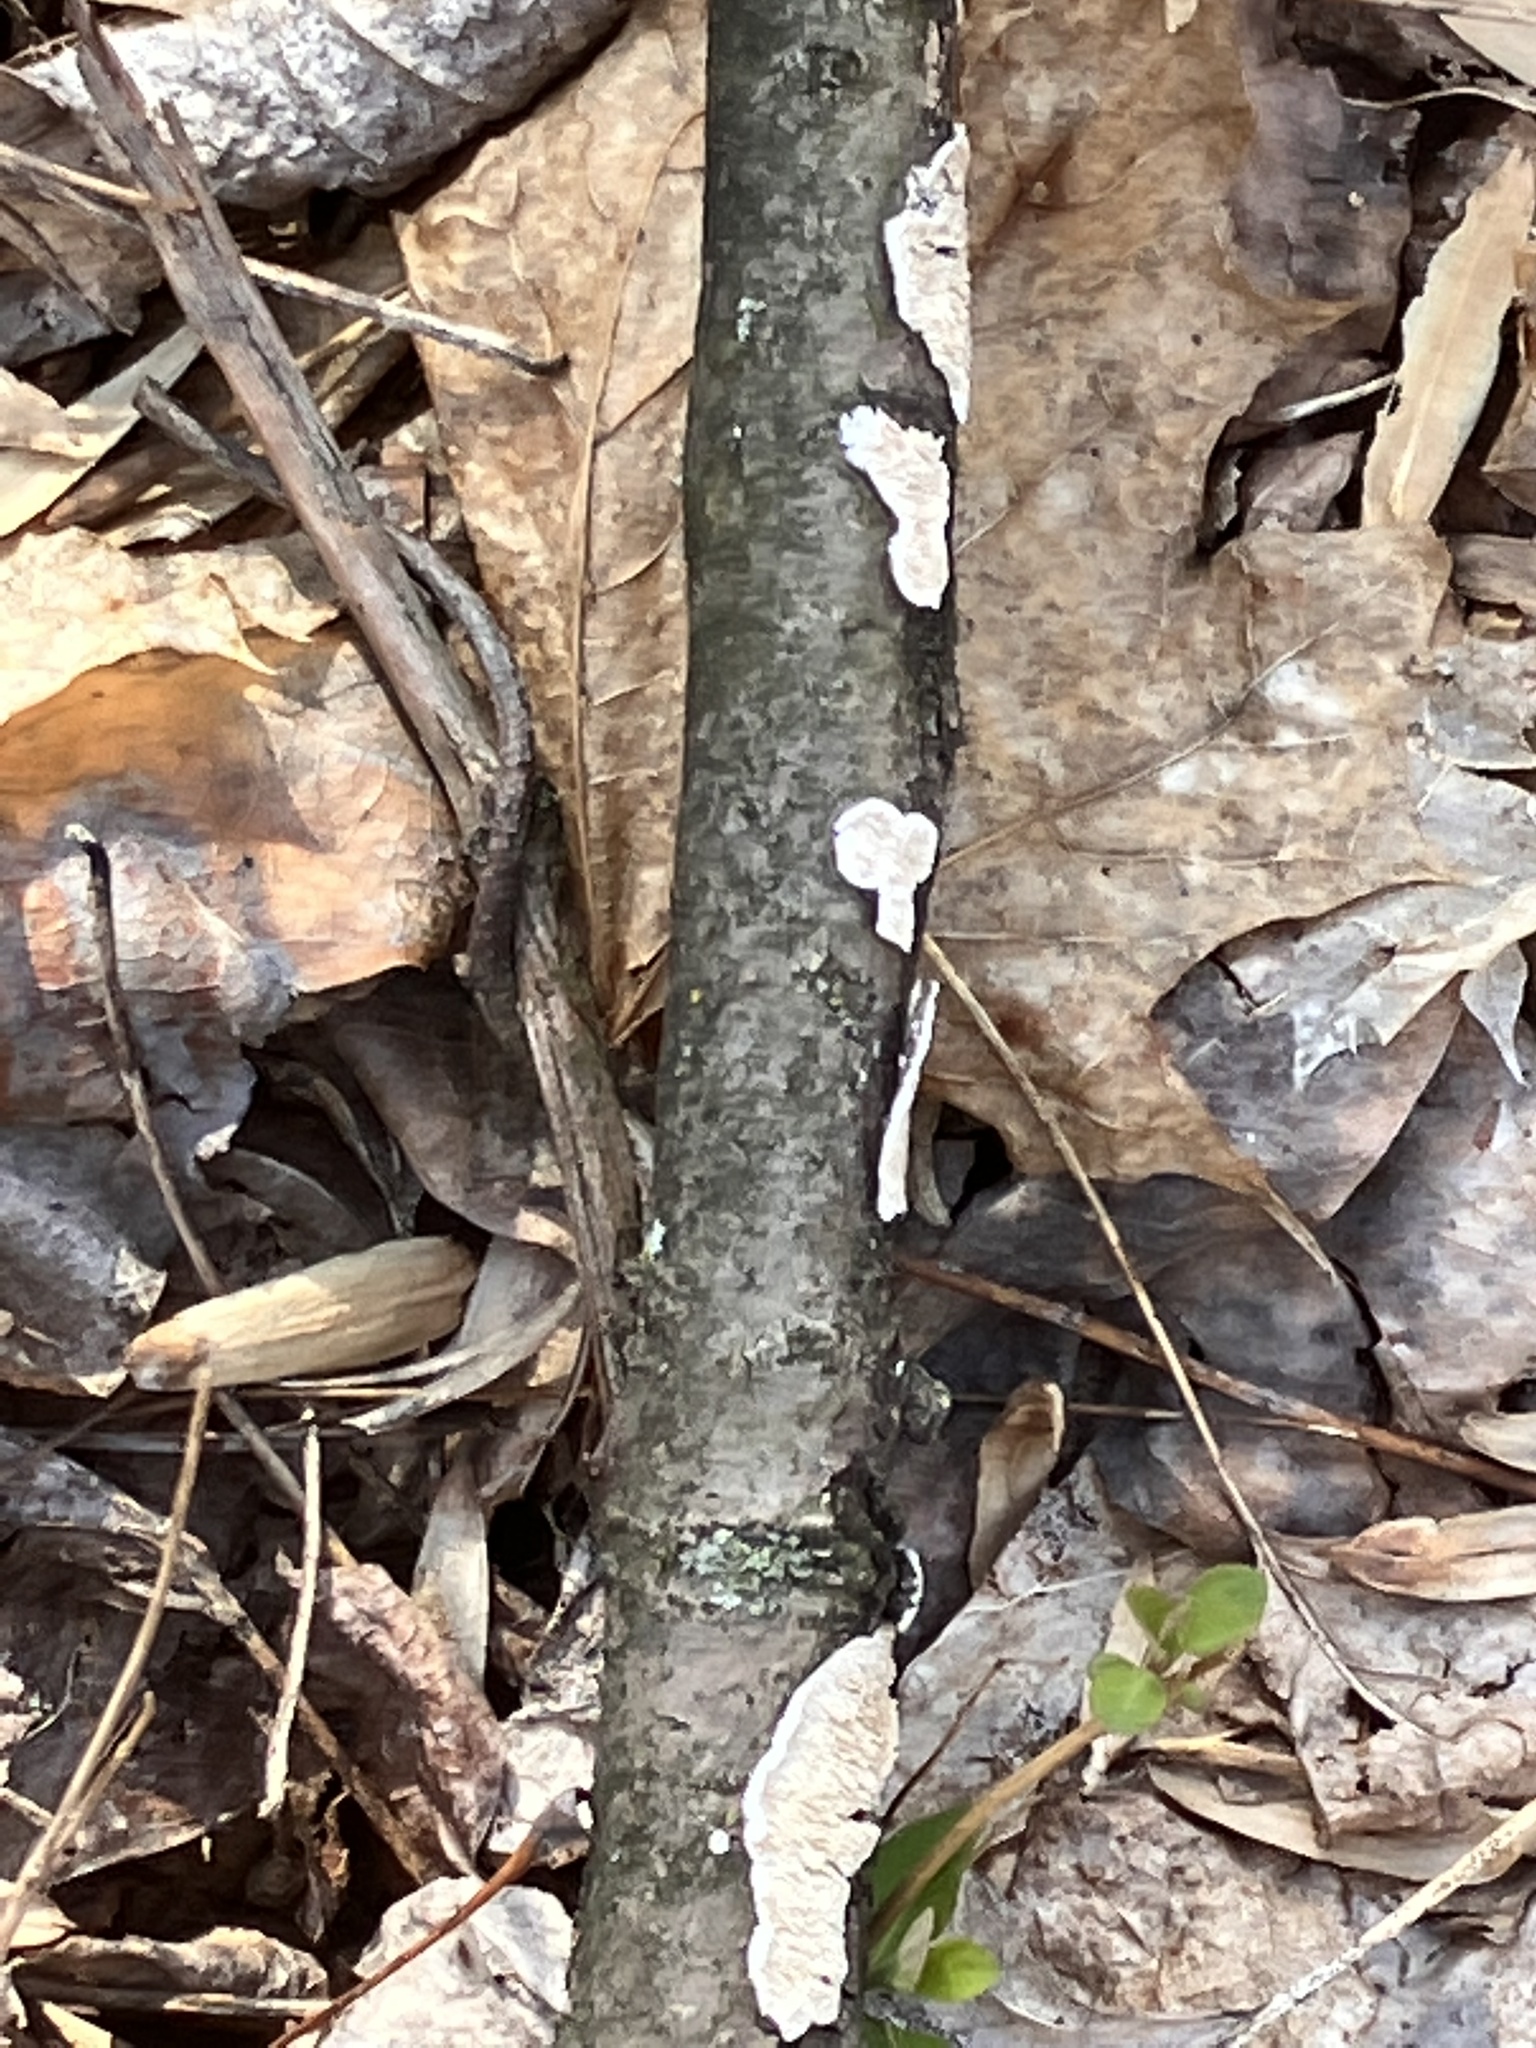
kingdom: Fungi
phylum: Basidiomycota
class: Agaricomycetes
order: Polyporales
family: Irpicaceae
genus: Irpex
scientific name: Irpex lacteus
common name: Milk-white toothed polypore
